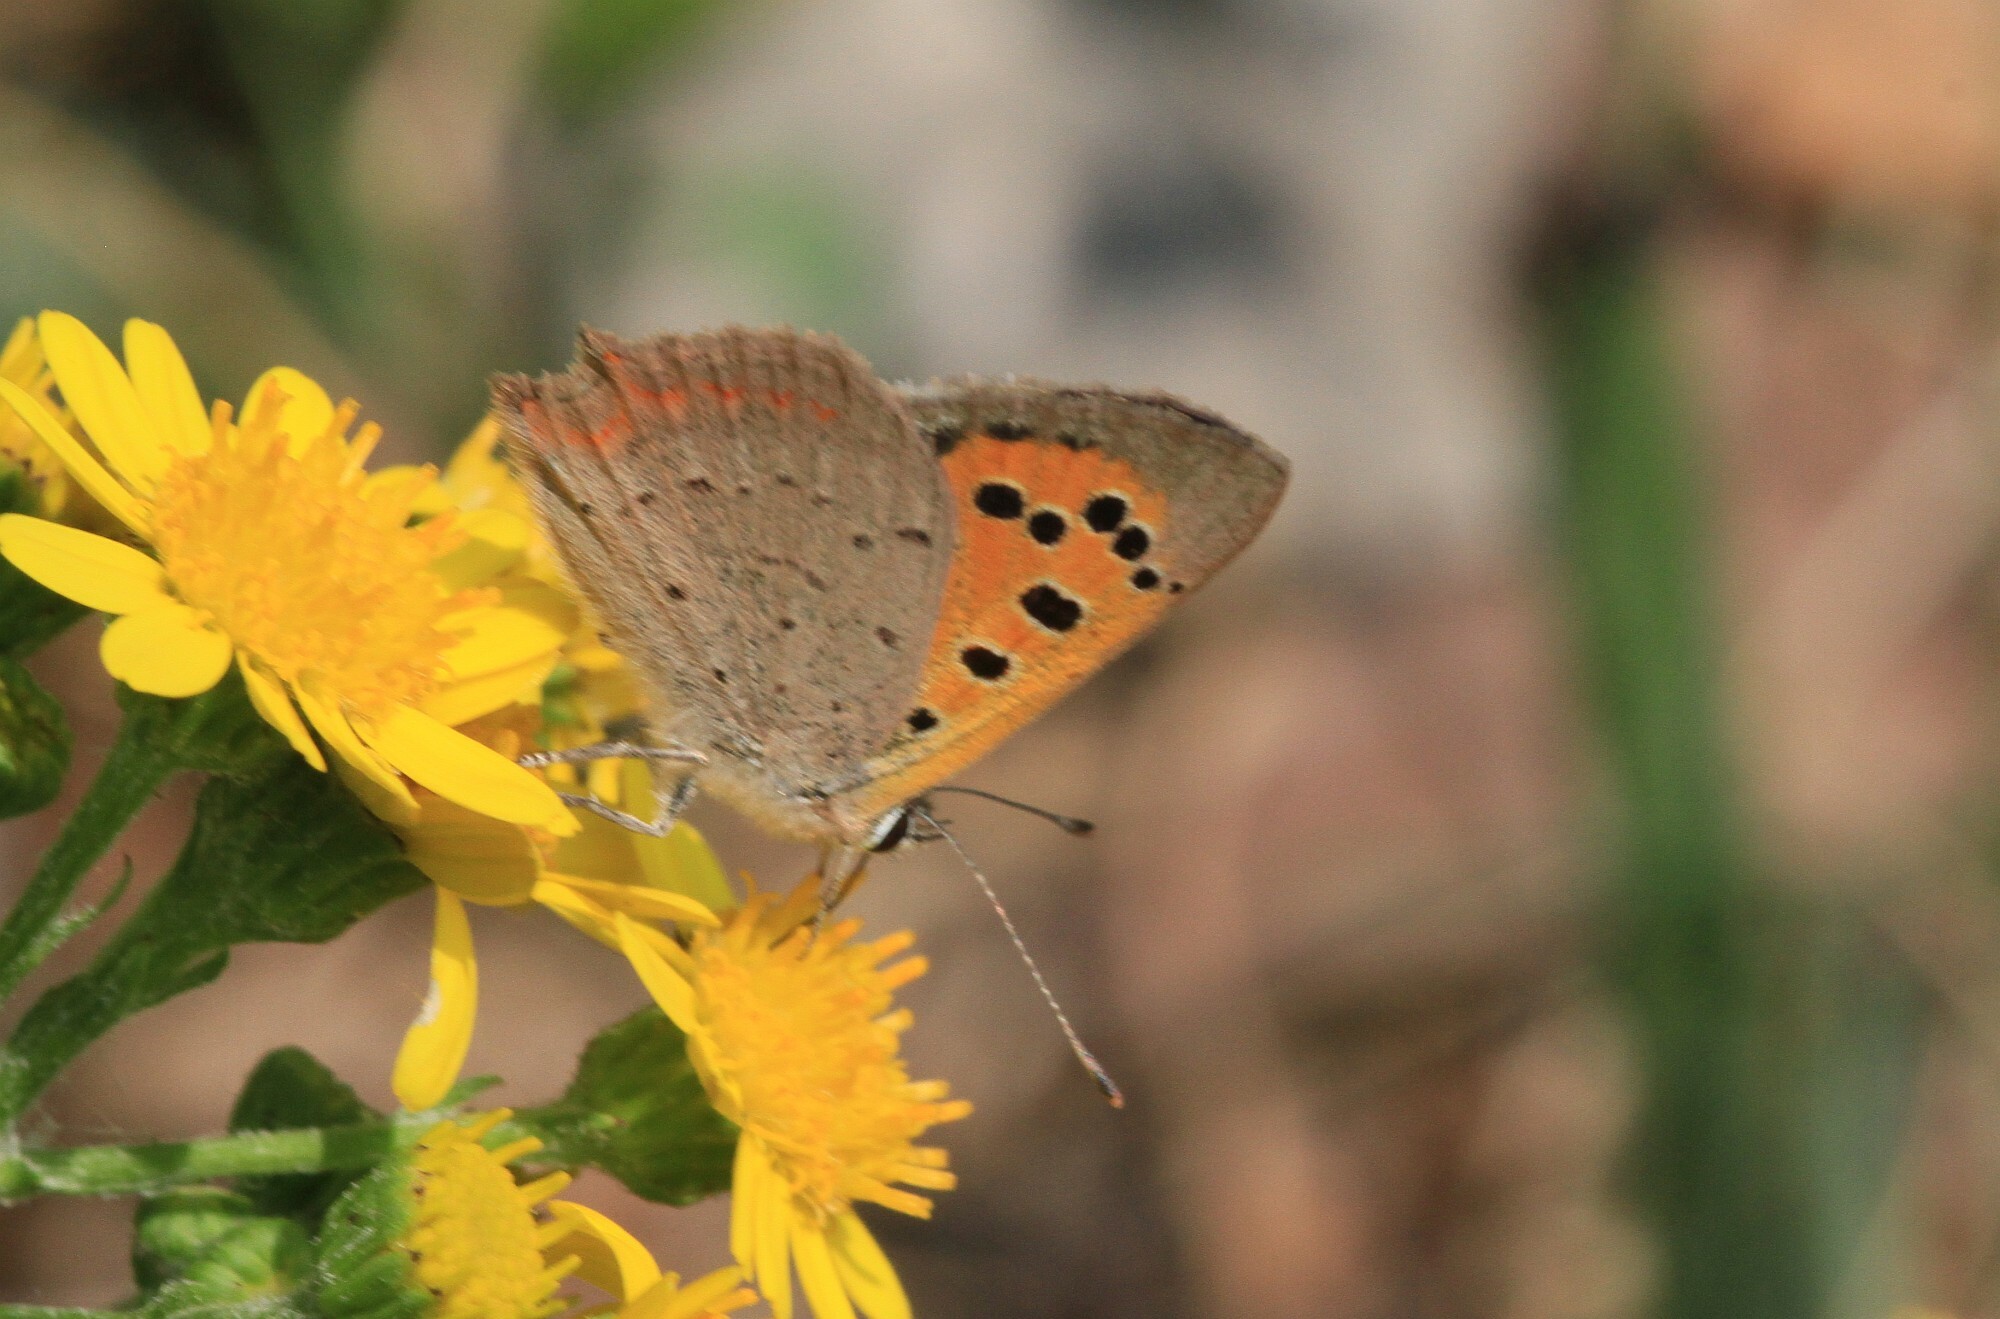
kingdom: Animalia
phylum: Arthropoda
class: Insecta
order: Lepidoptera
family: Lycaenidae
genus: Lycaena
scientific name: Lycaena phlaeas
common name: Small copper
